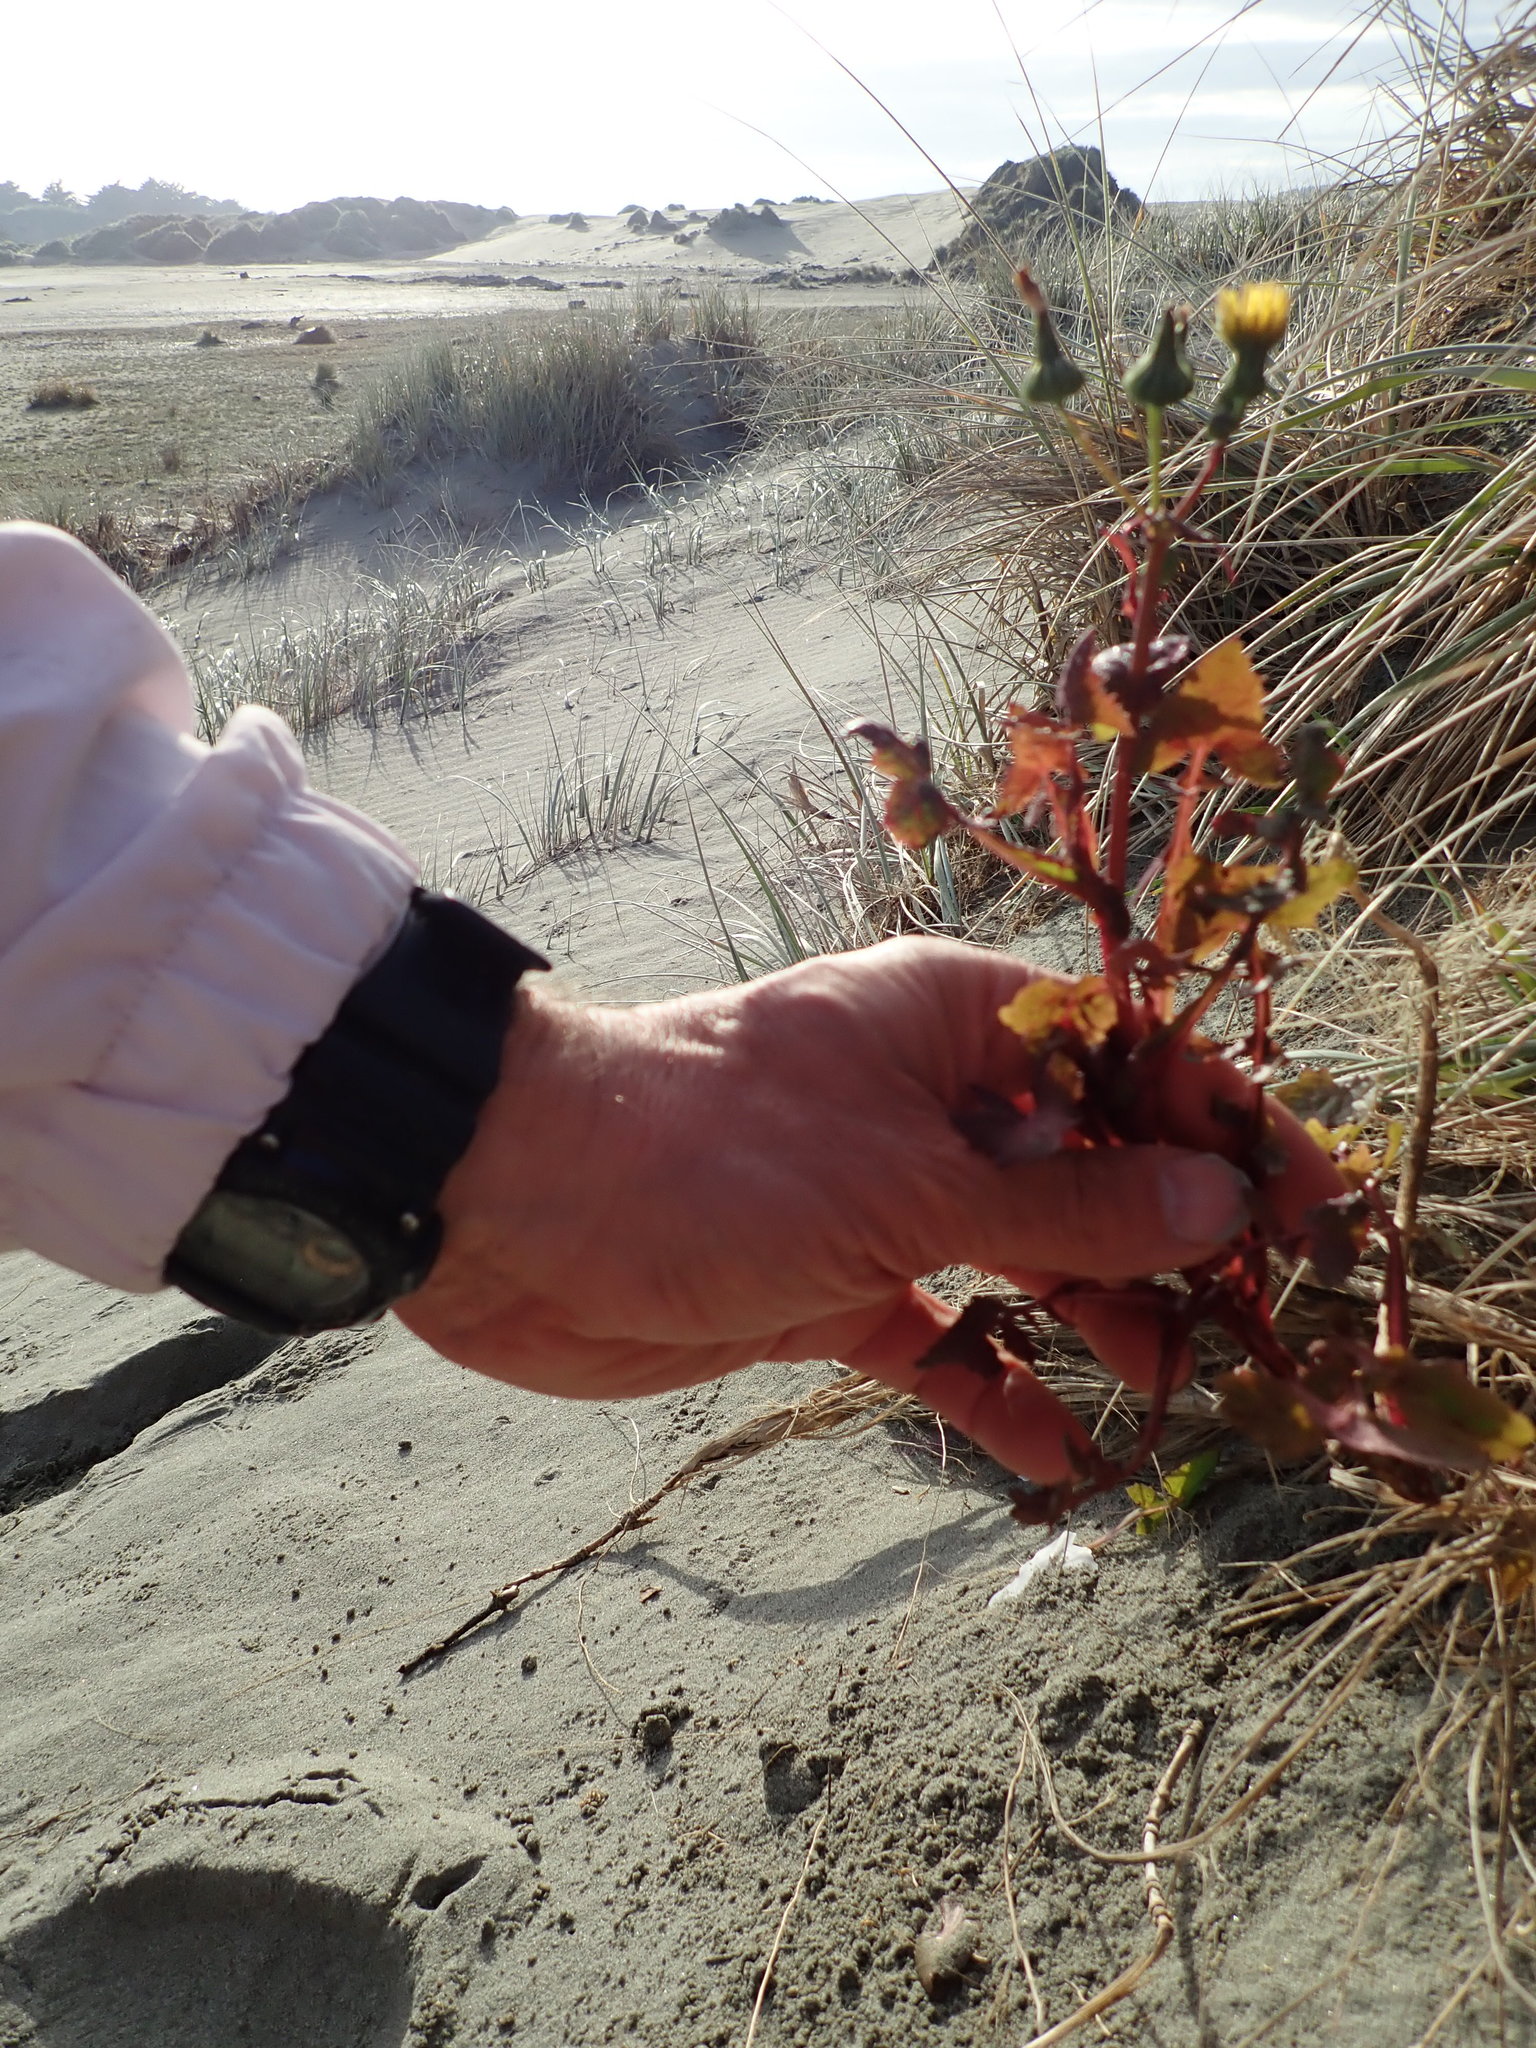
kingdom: Plantae
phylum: Tracheophyta
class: Magnoliopsida
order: Asterales
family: Asteraceae
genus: Sonchus
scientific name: Sonchus oleraceus
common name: Common sowthistle
